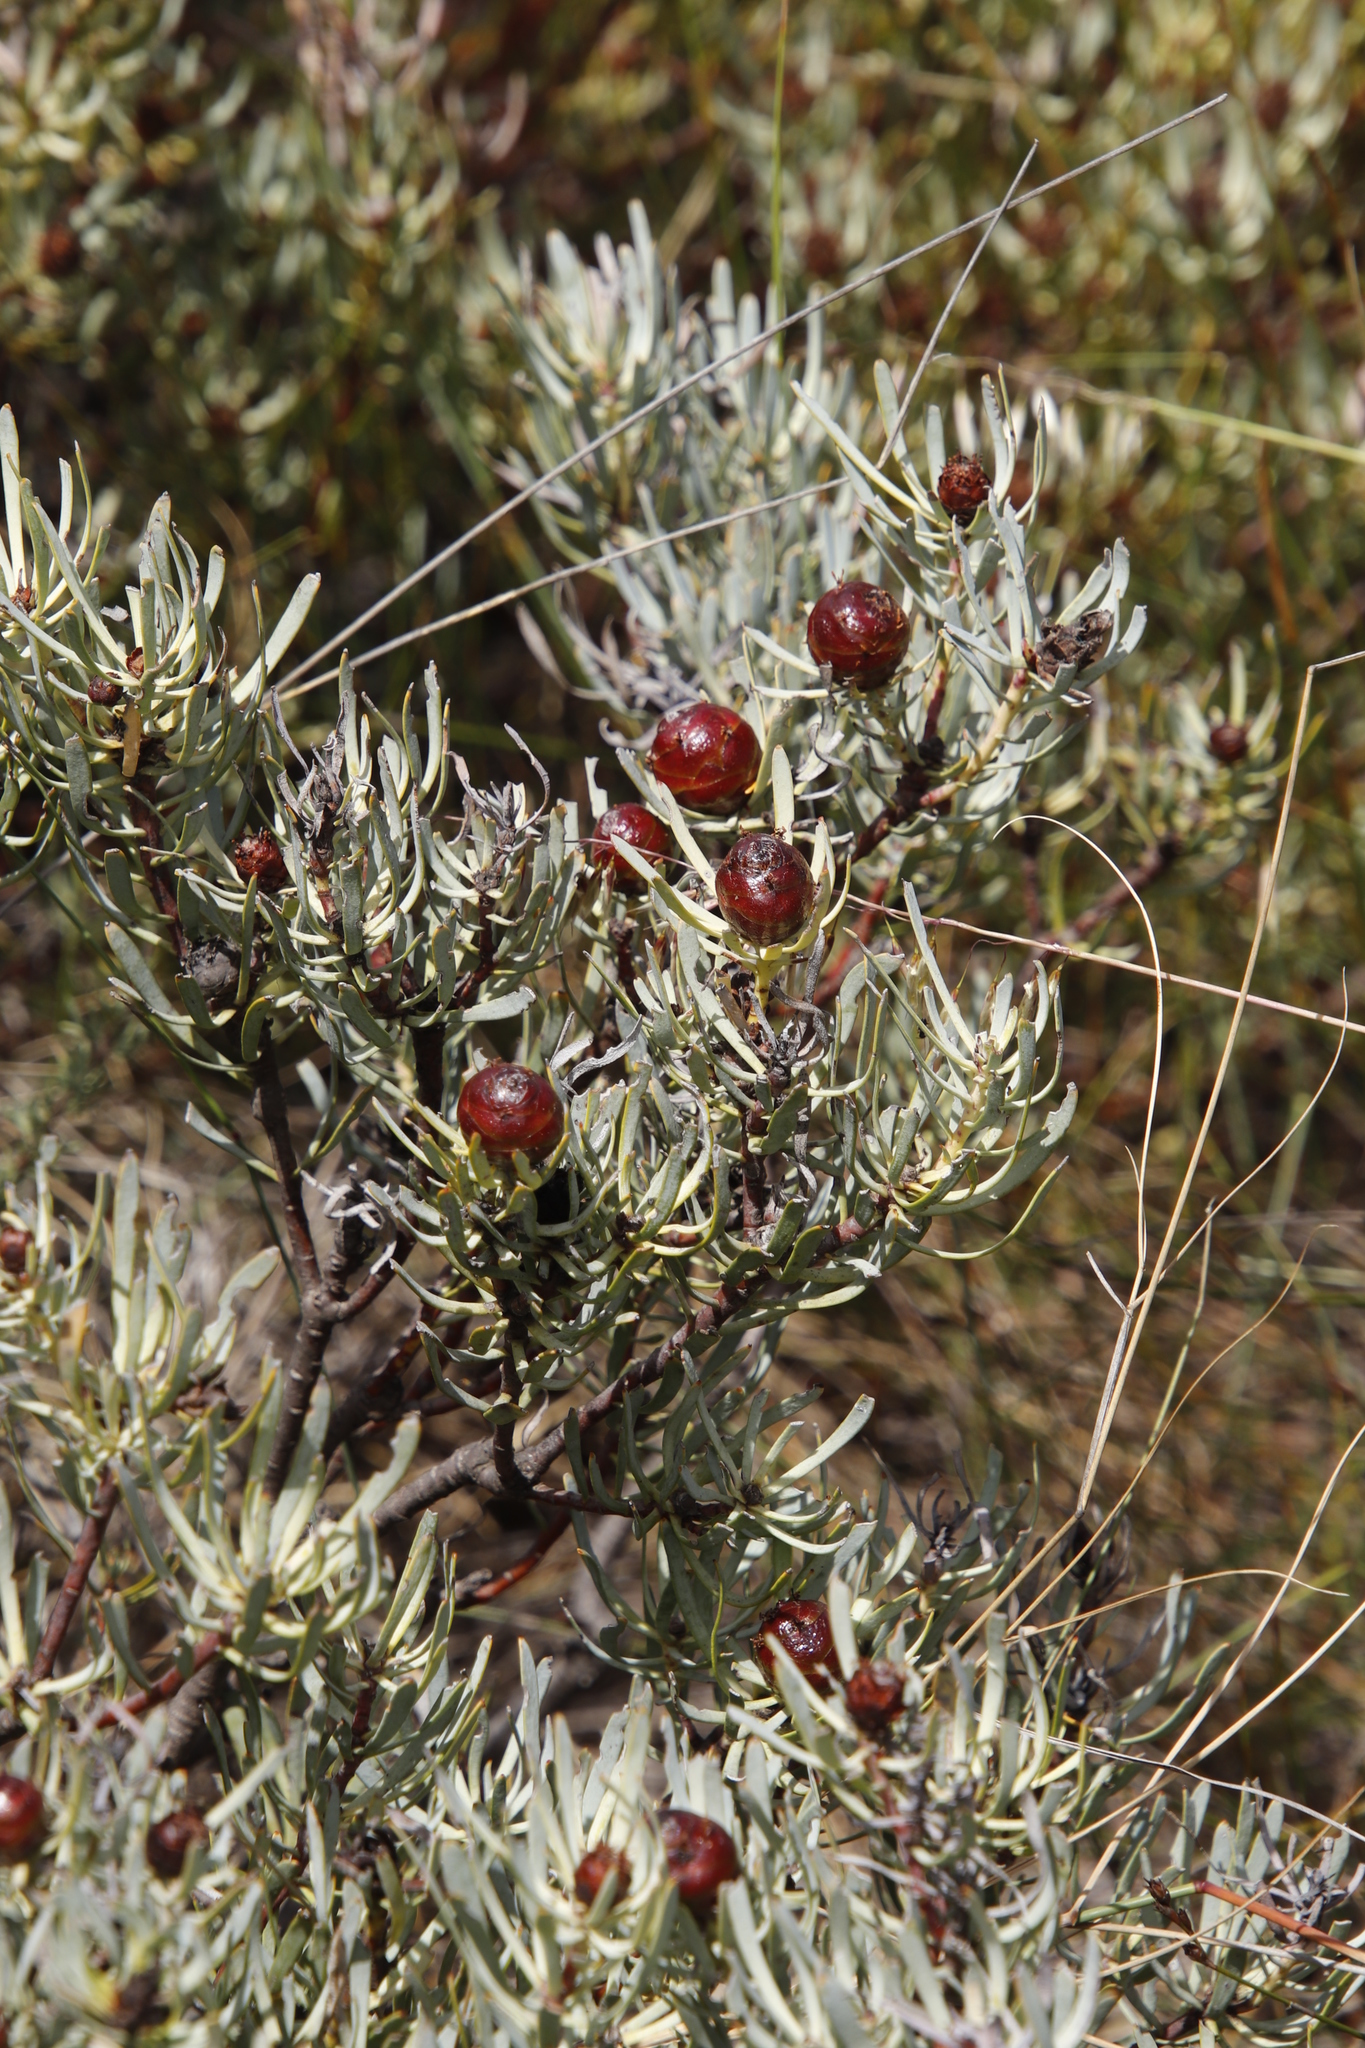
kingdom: Plantae
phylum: Tracheophyta
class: Magnoliopsida
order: Proteales
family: Proteaceae
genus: Leucadendron
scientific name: Leucadendron meyerianum
